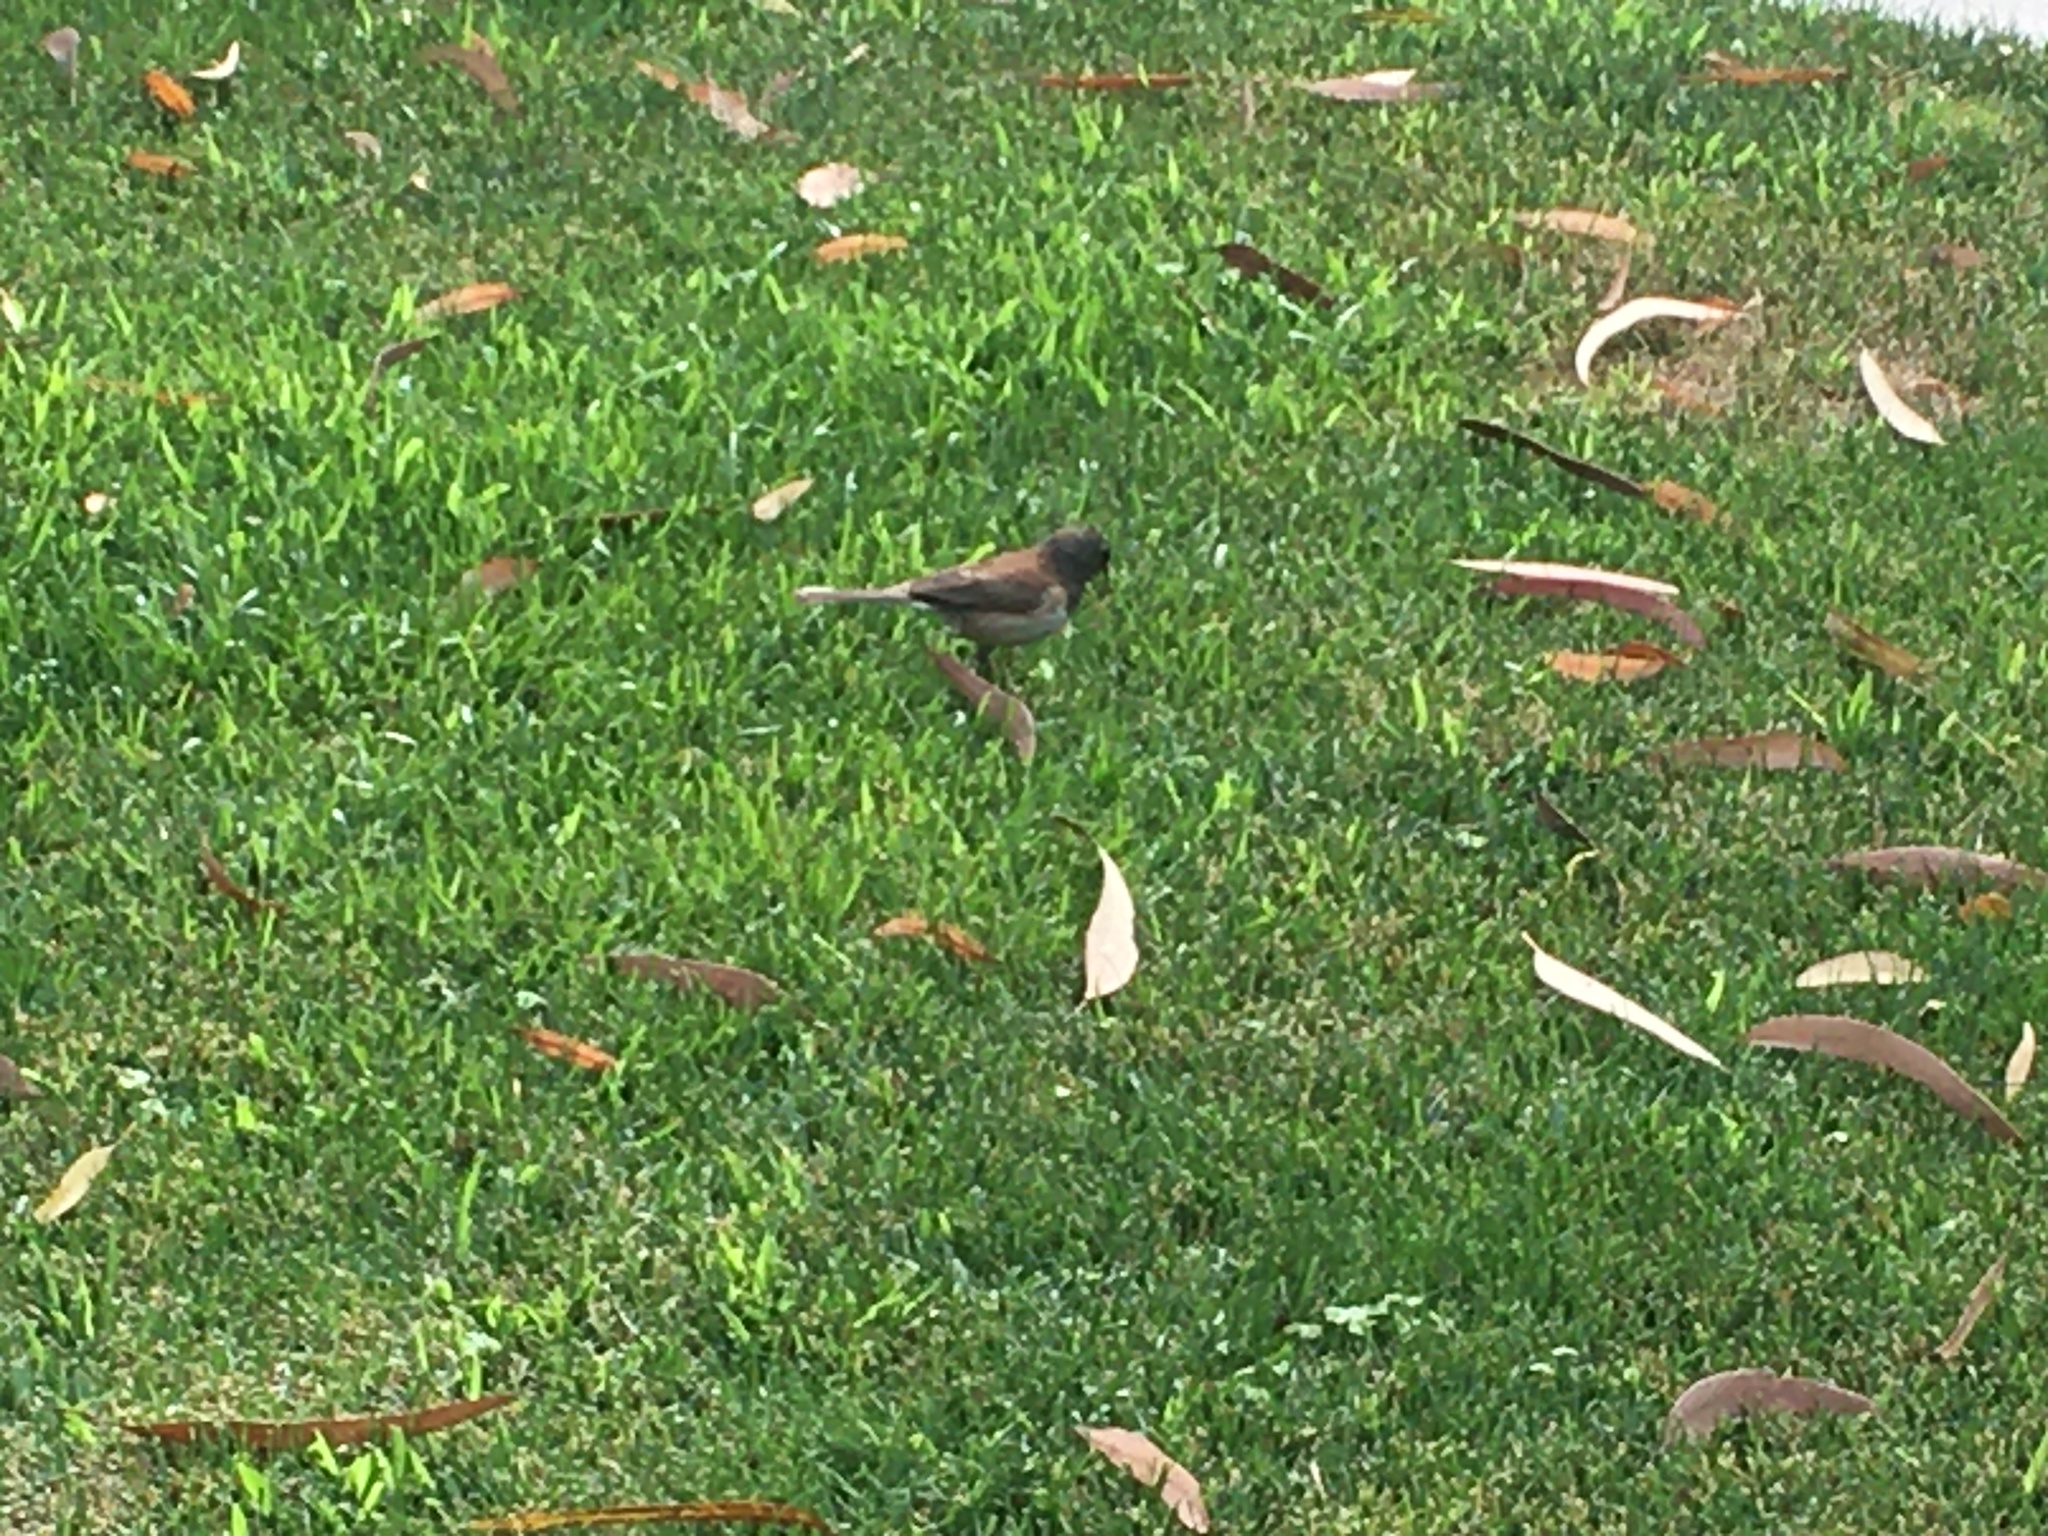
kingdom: Animalia
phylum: Chordata
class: Aves
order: Passeriformes
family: Passerellidae
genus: Junco
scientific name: Junco hyemalis
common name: Dark-eyed junco
